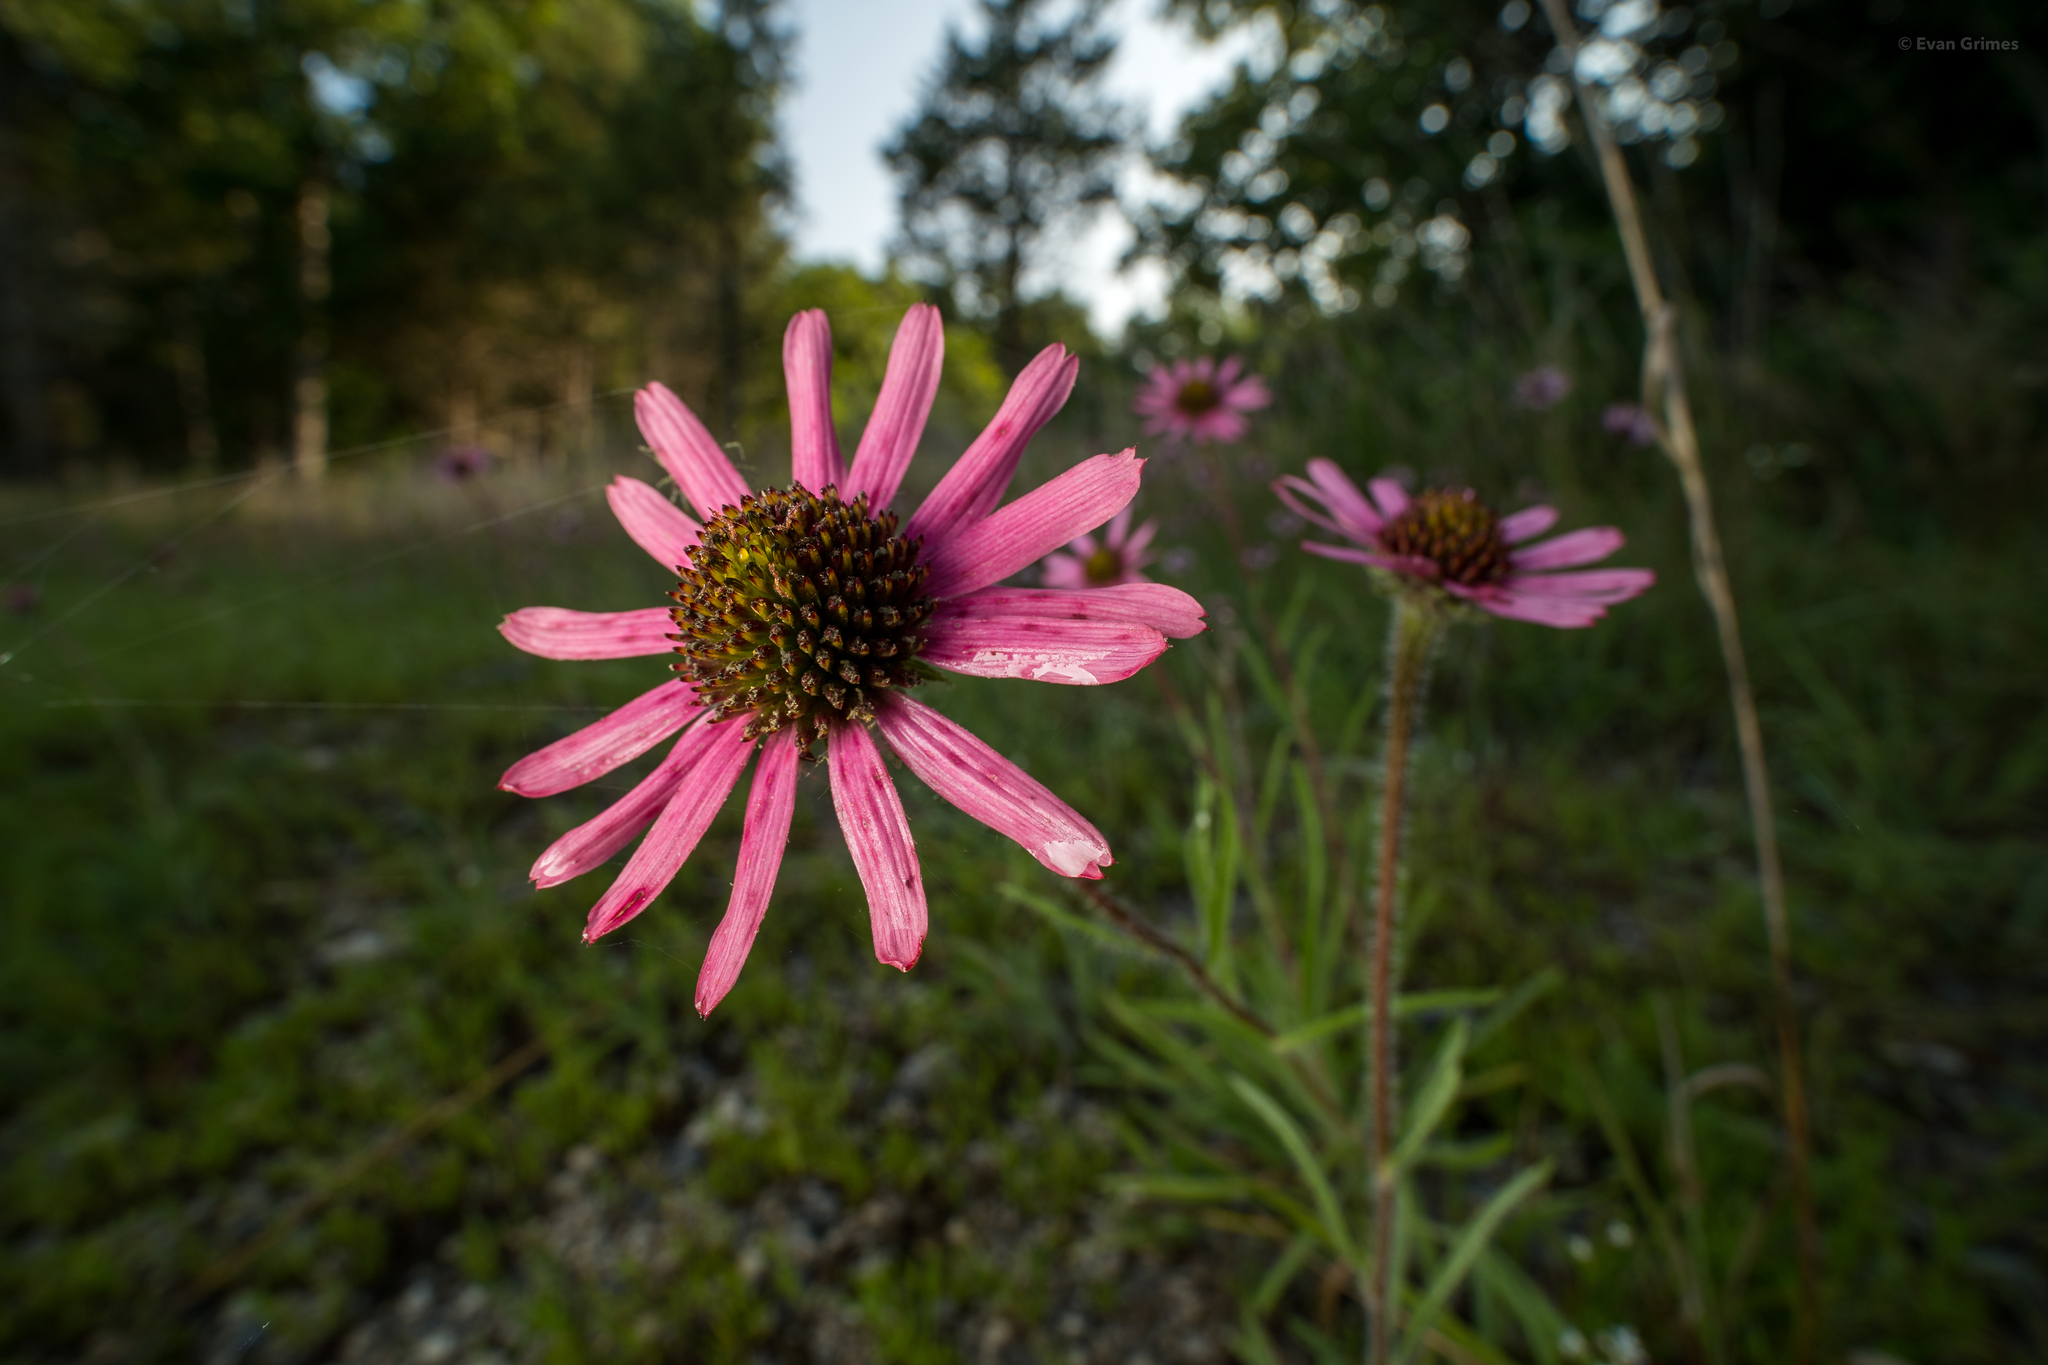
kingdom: Plantae
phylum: Tracheophyta
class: Magnoliopsida
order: Asterales
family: Asteraceae
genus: Echinacea
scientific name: Echinacea tennesseensis
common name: Tennessee purple-coneflower
